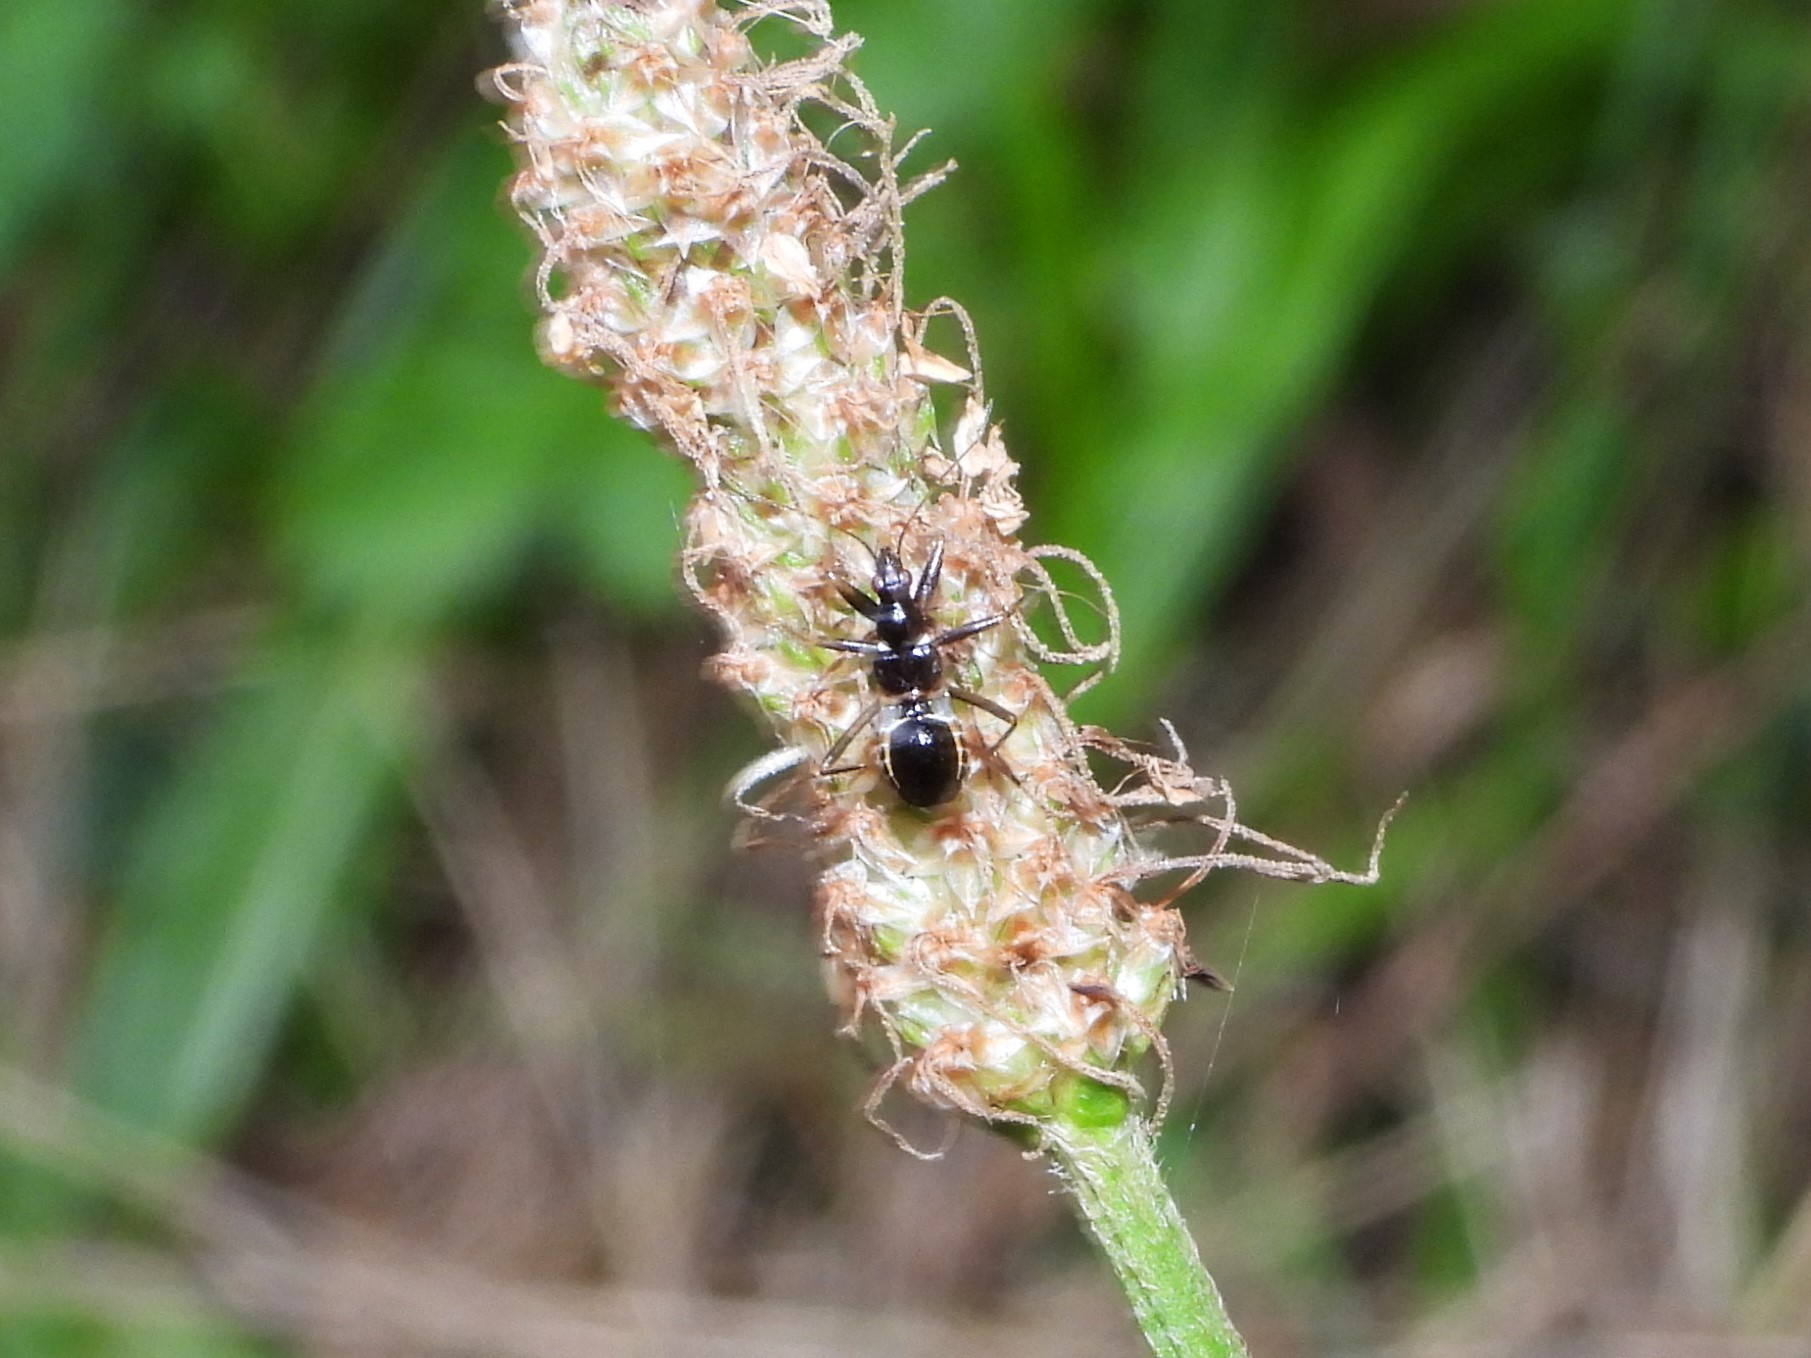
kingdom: Animalia
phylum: Arthropoda
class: Insecta
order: Hemiptera
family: Nabidae
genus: Himacerus
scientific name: Himacerus mirmicoides
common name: Ant damsel bug
